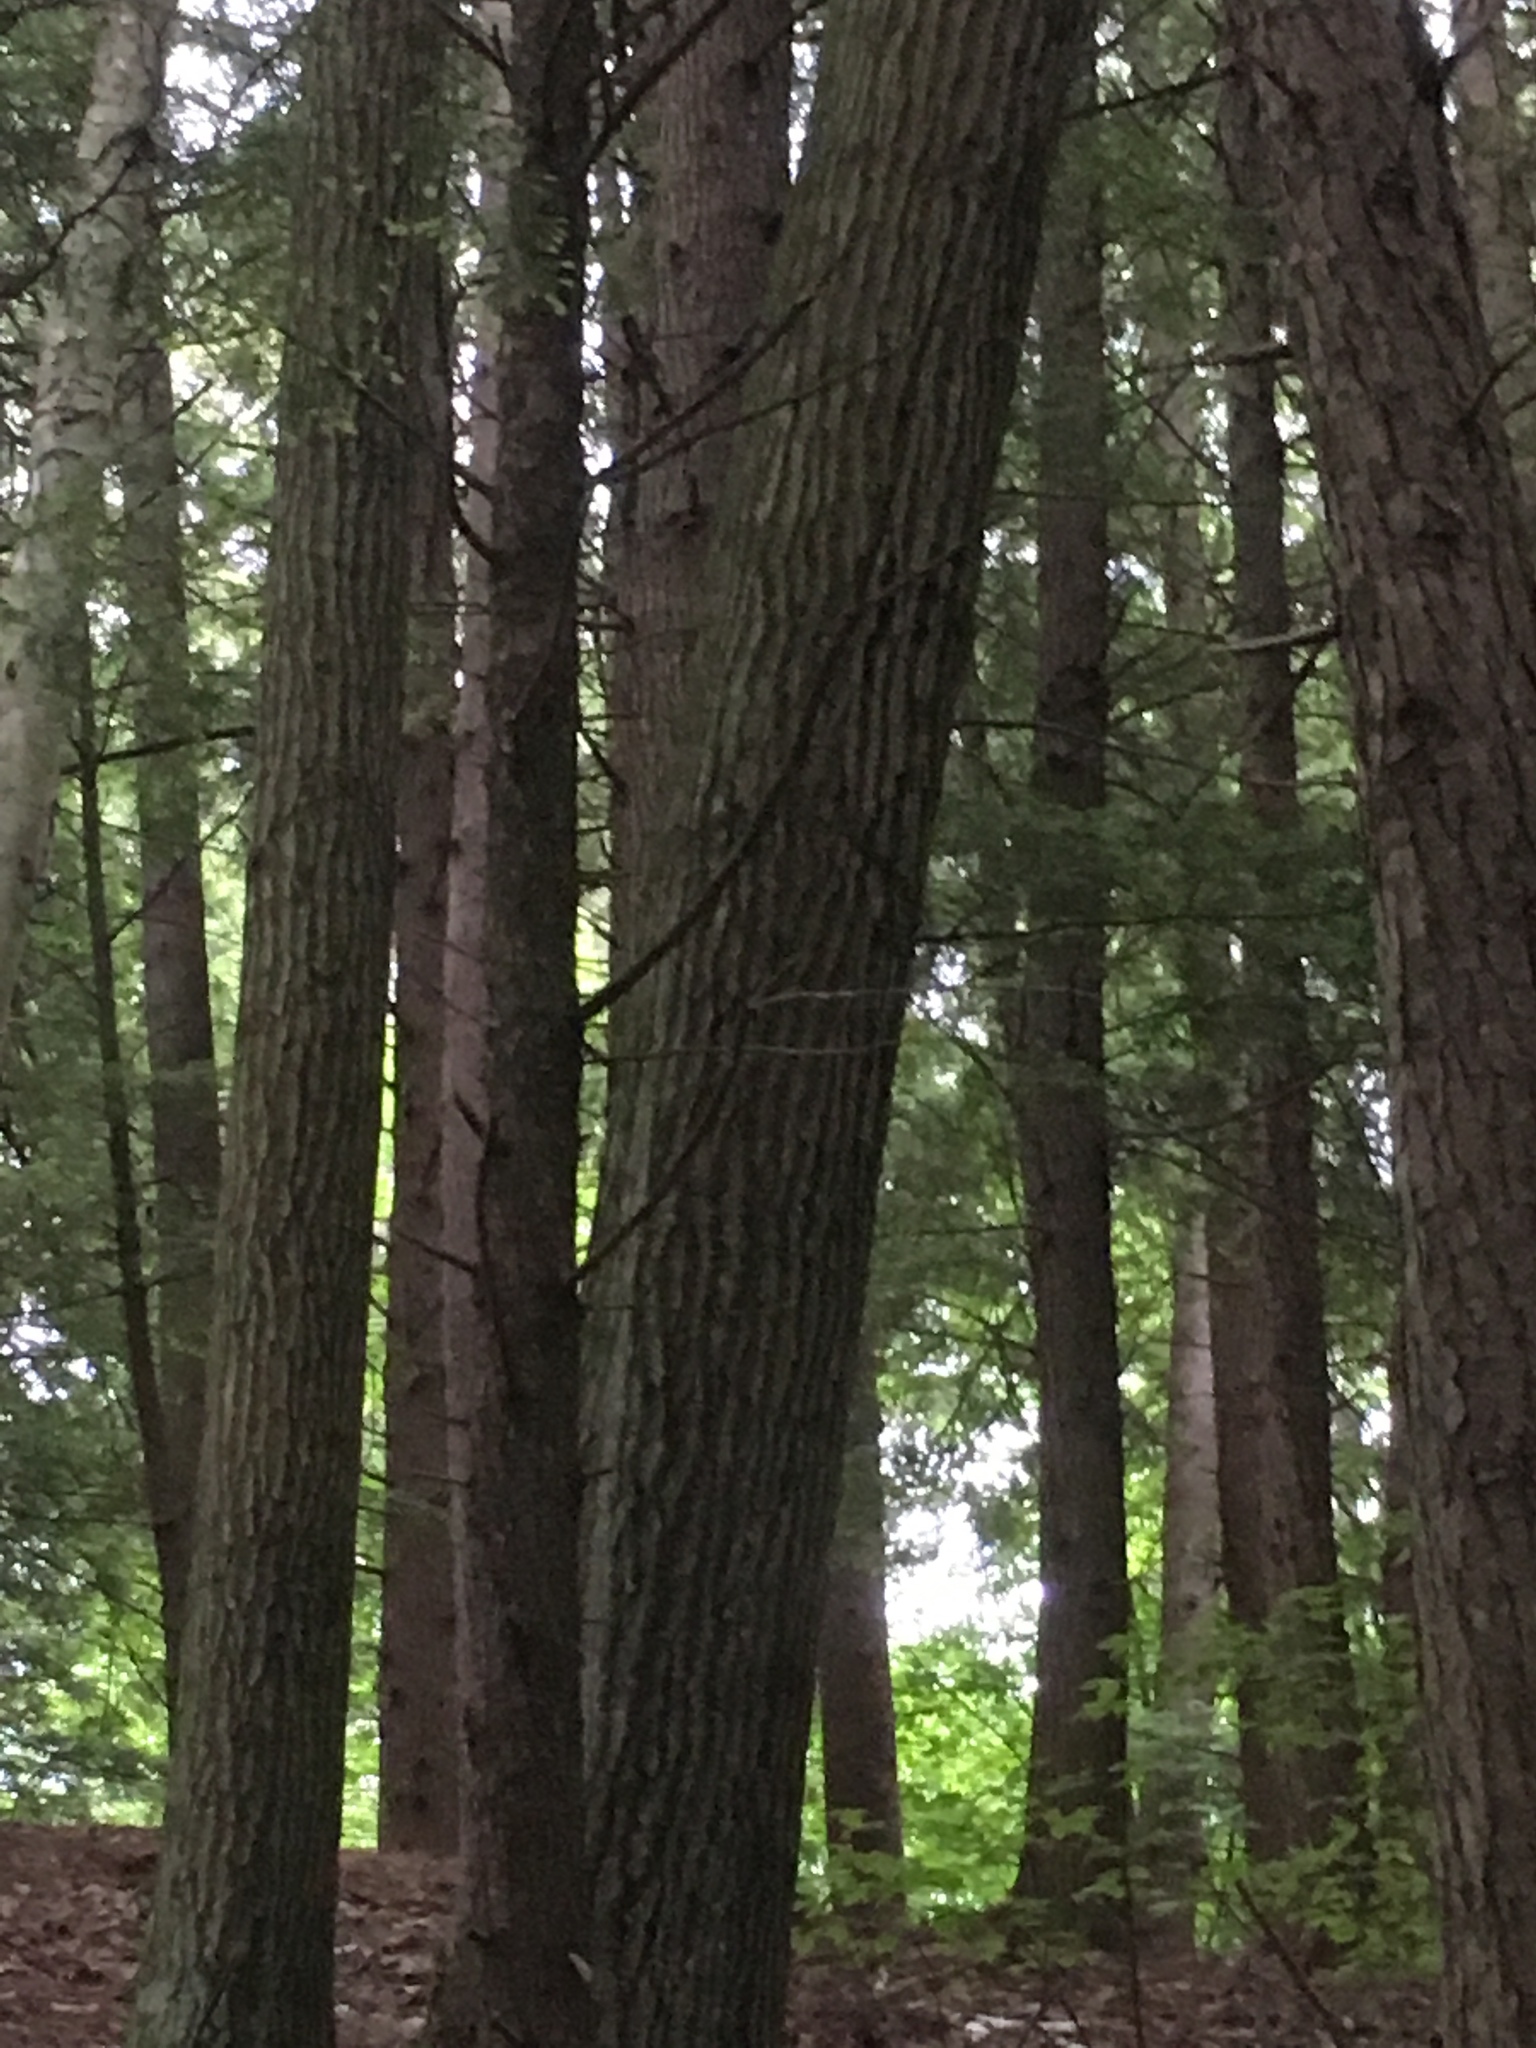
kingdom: Plantae
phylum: Tracheophyta
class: Magnoliopsida
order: Fagales
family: Fagaceae
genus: Quercus
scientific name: Quercus rubra
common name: Red oak
